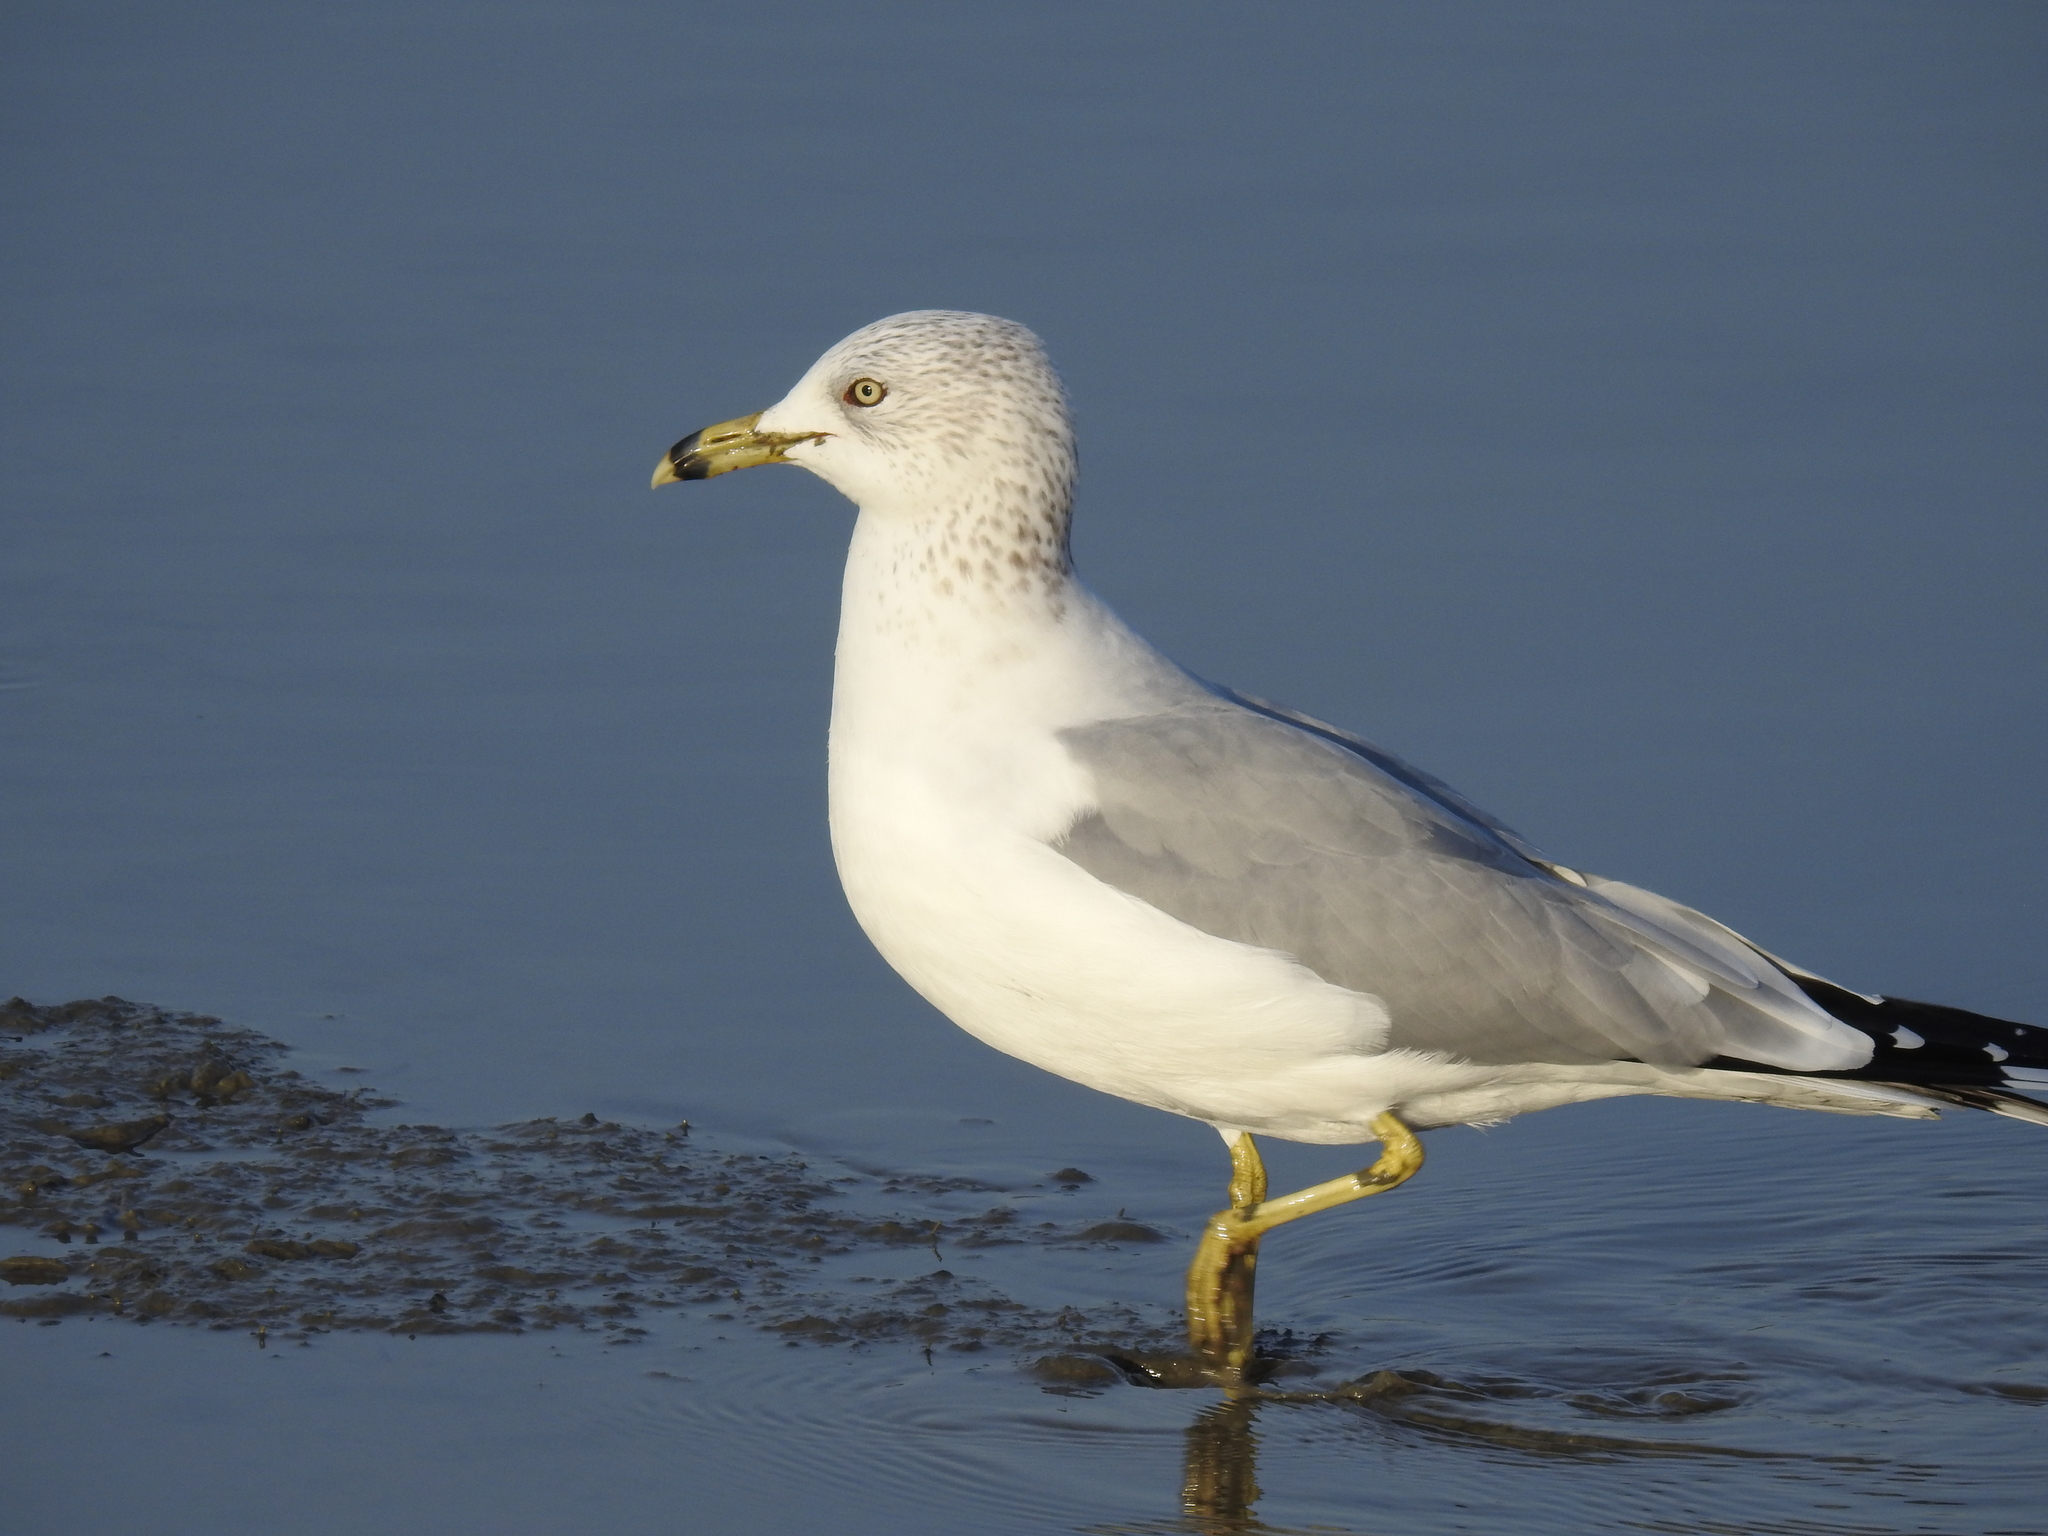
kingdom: Animalia
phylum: Chordata
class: Aves
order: Charadriiformes
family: Laridae
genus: Larus
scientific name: Larus delawarensis
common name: Ring-billed gull
